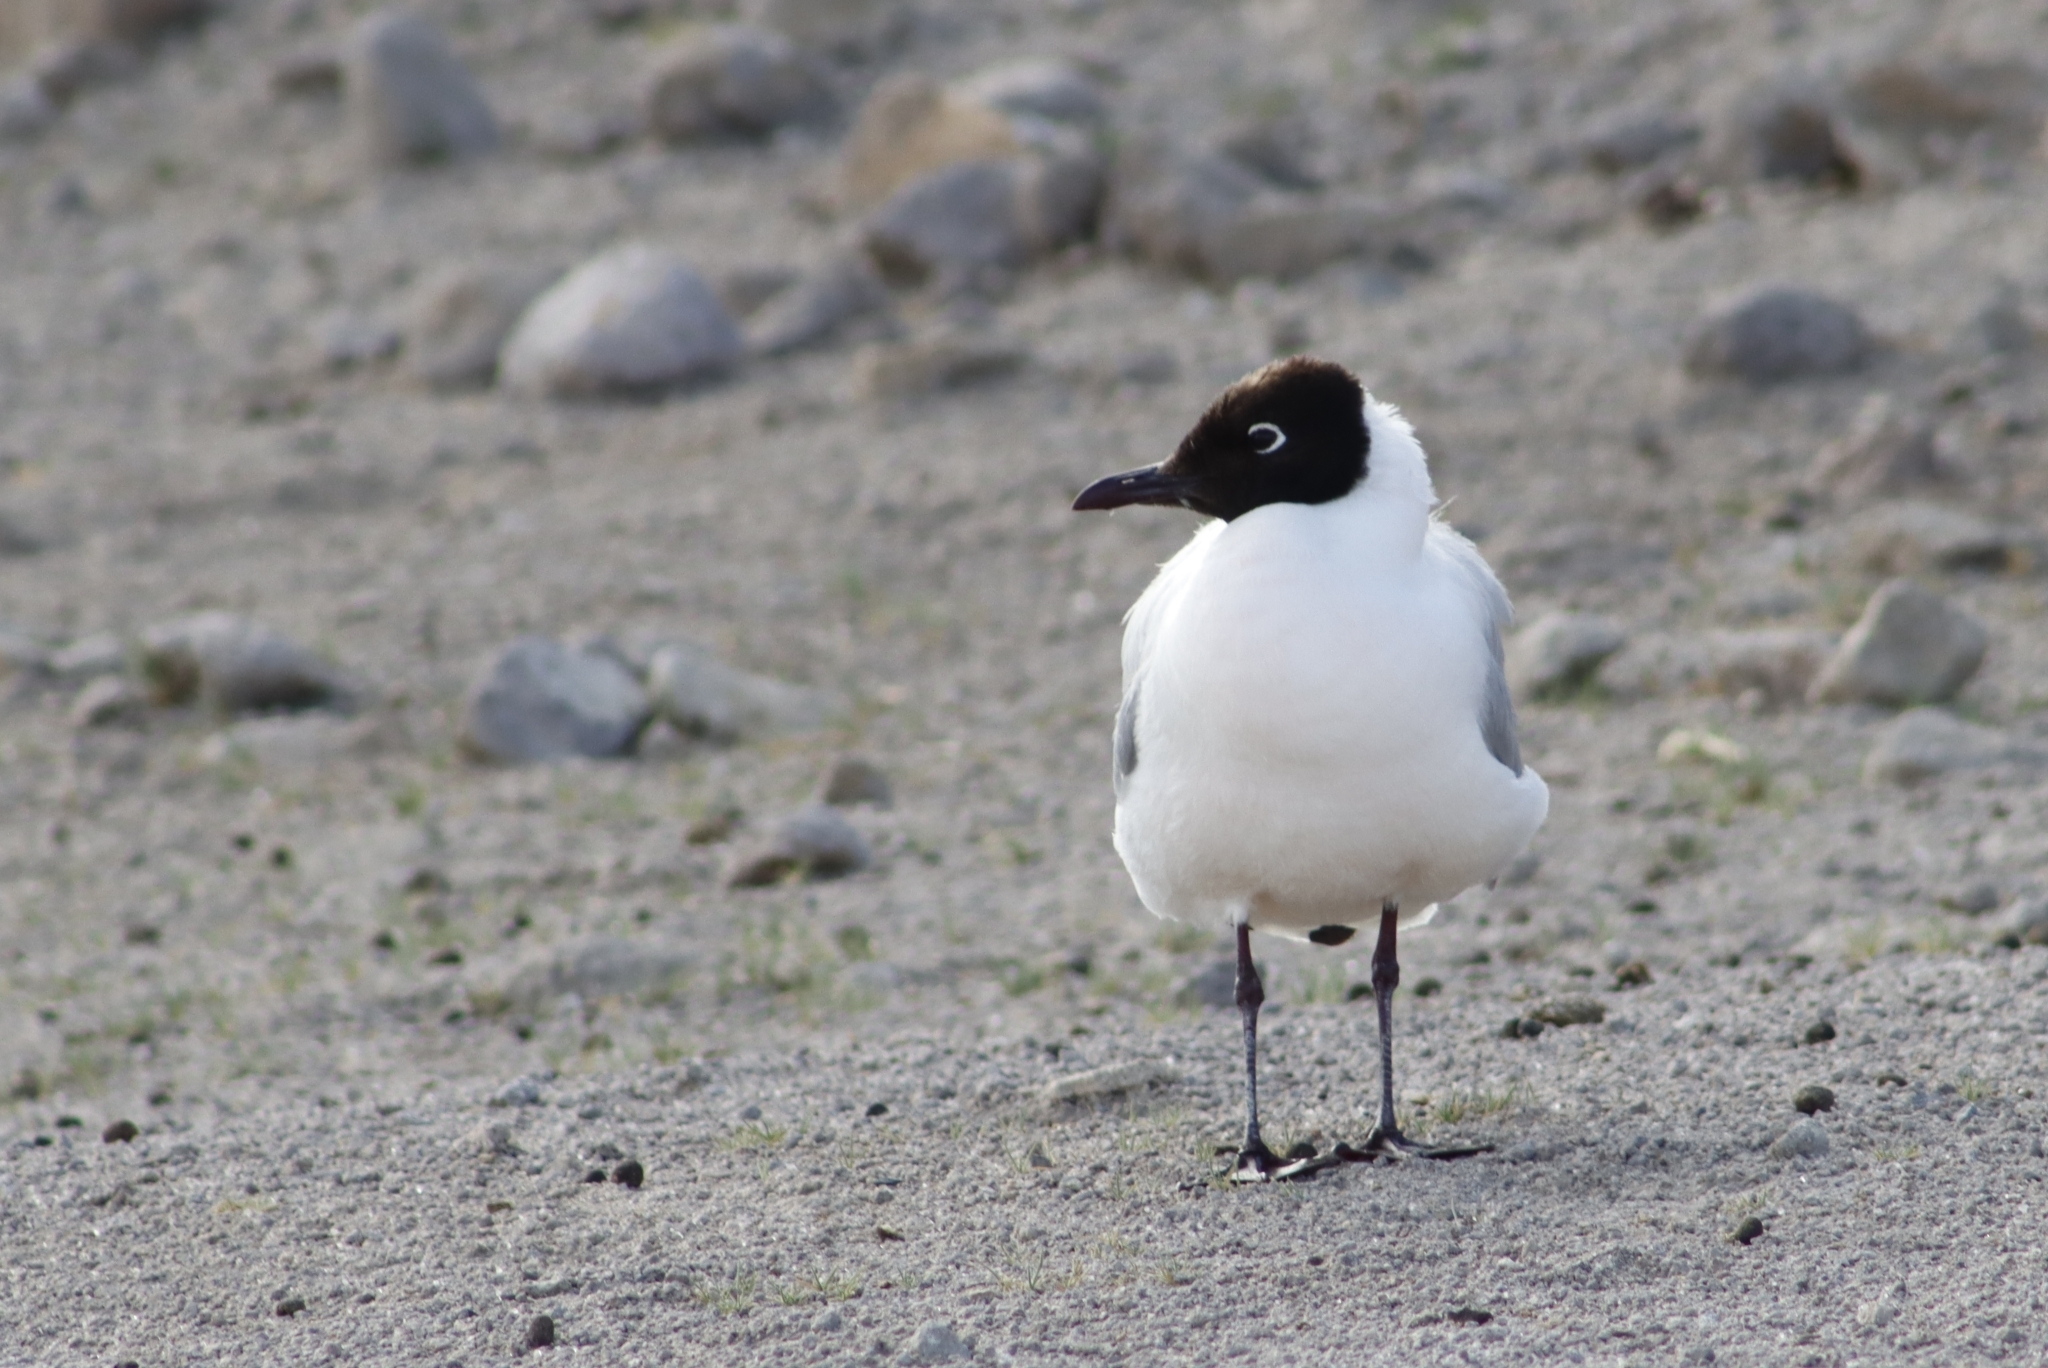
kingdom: Animalia
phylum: Chordata
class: Aves
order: Charadriiformes
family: Laridae
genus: Chroicocephalus
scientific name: Chroicocephalus serranus
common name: Andean gull
